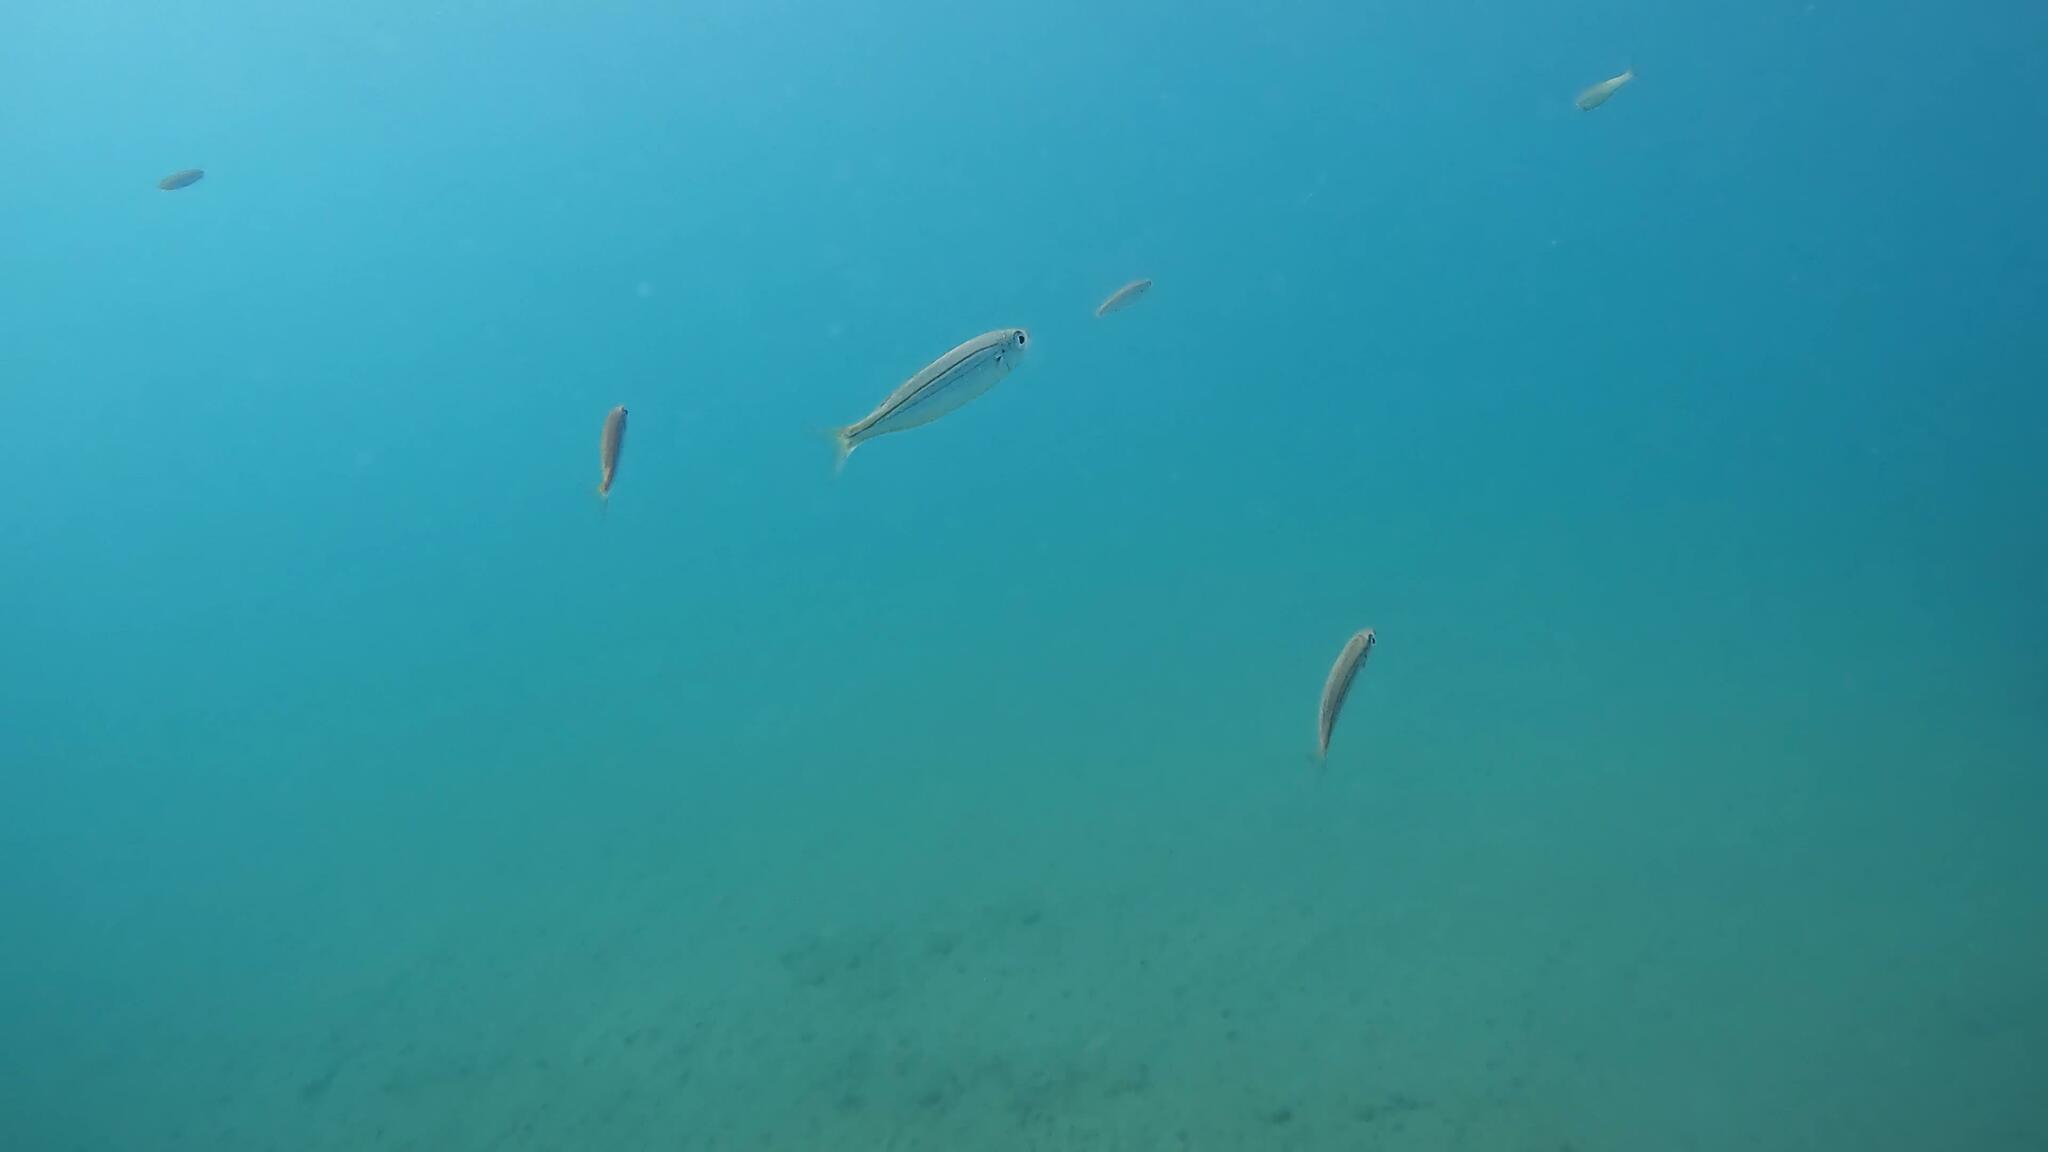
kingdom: Animalia
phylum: Chordata
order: Perciformes
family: Sparidae
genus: Boops
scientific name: Boops boops
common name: Bogue
